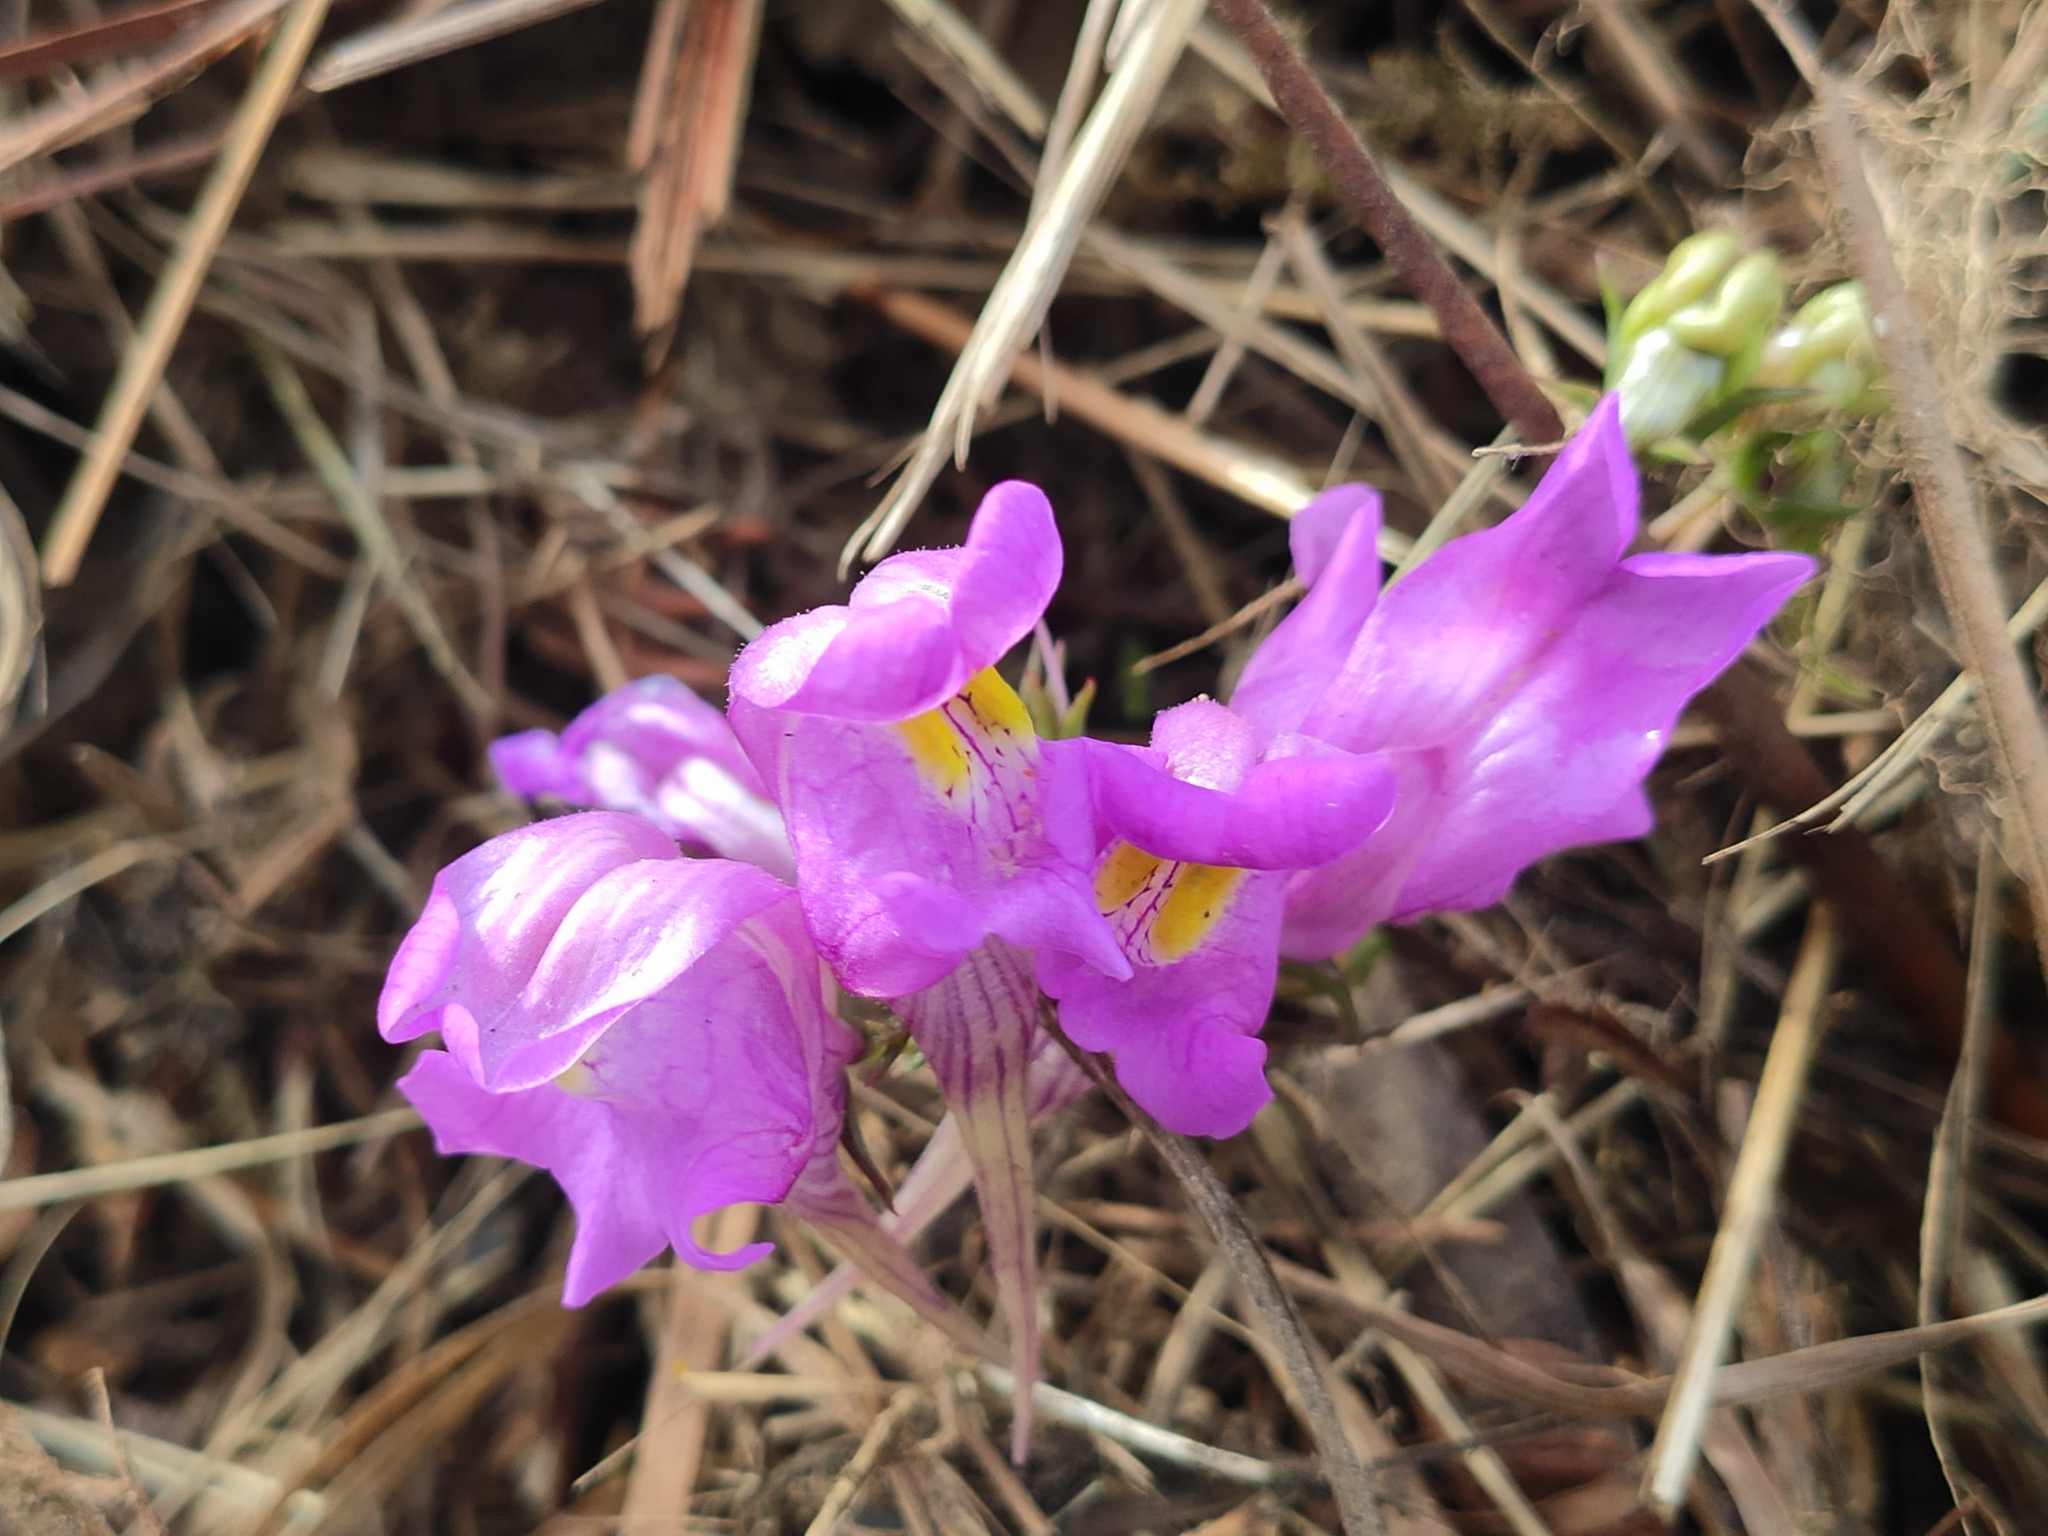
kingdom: Plantae
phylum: Tracheophyta
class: Magnoliopsida
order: Lamiales
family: Plantaginaceae
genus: Linaria
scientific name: Linaria triornithophora
